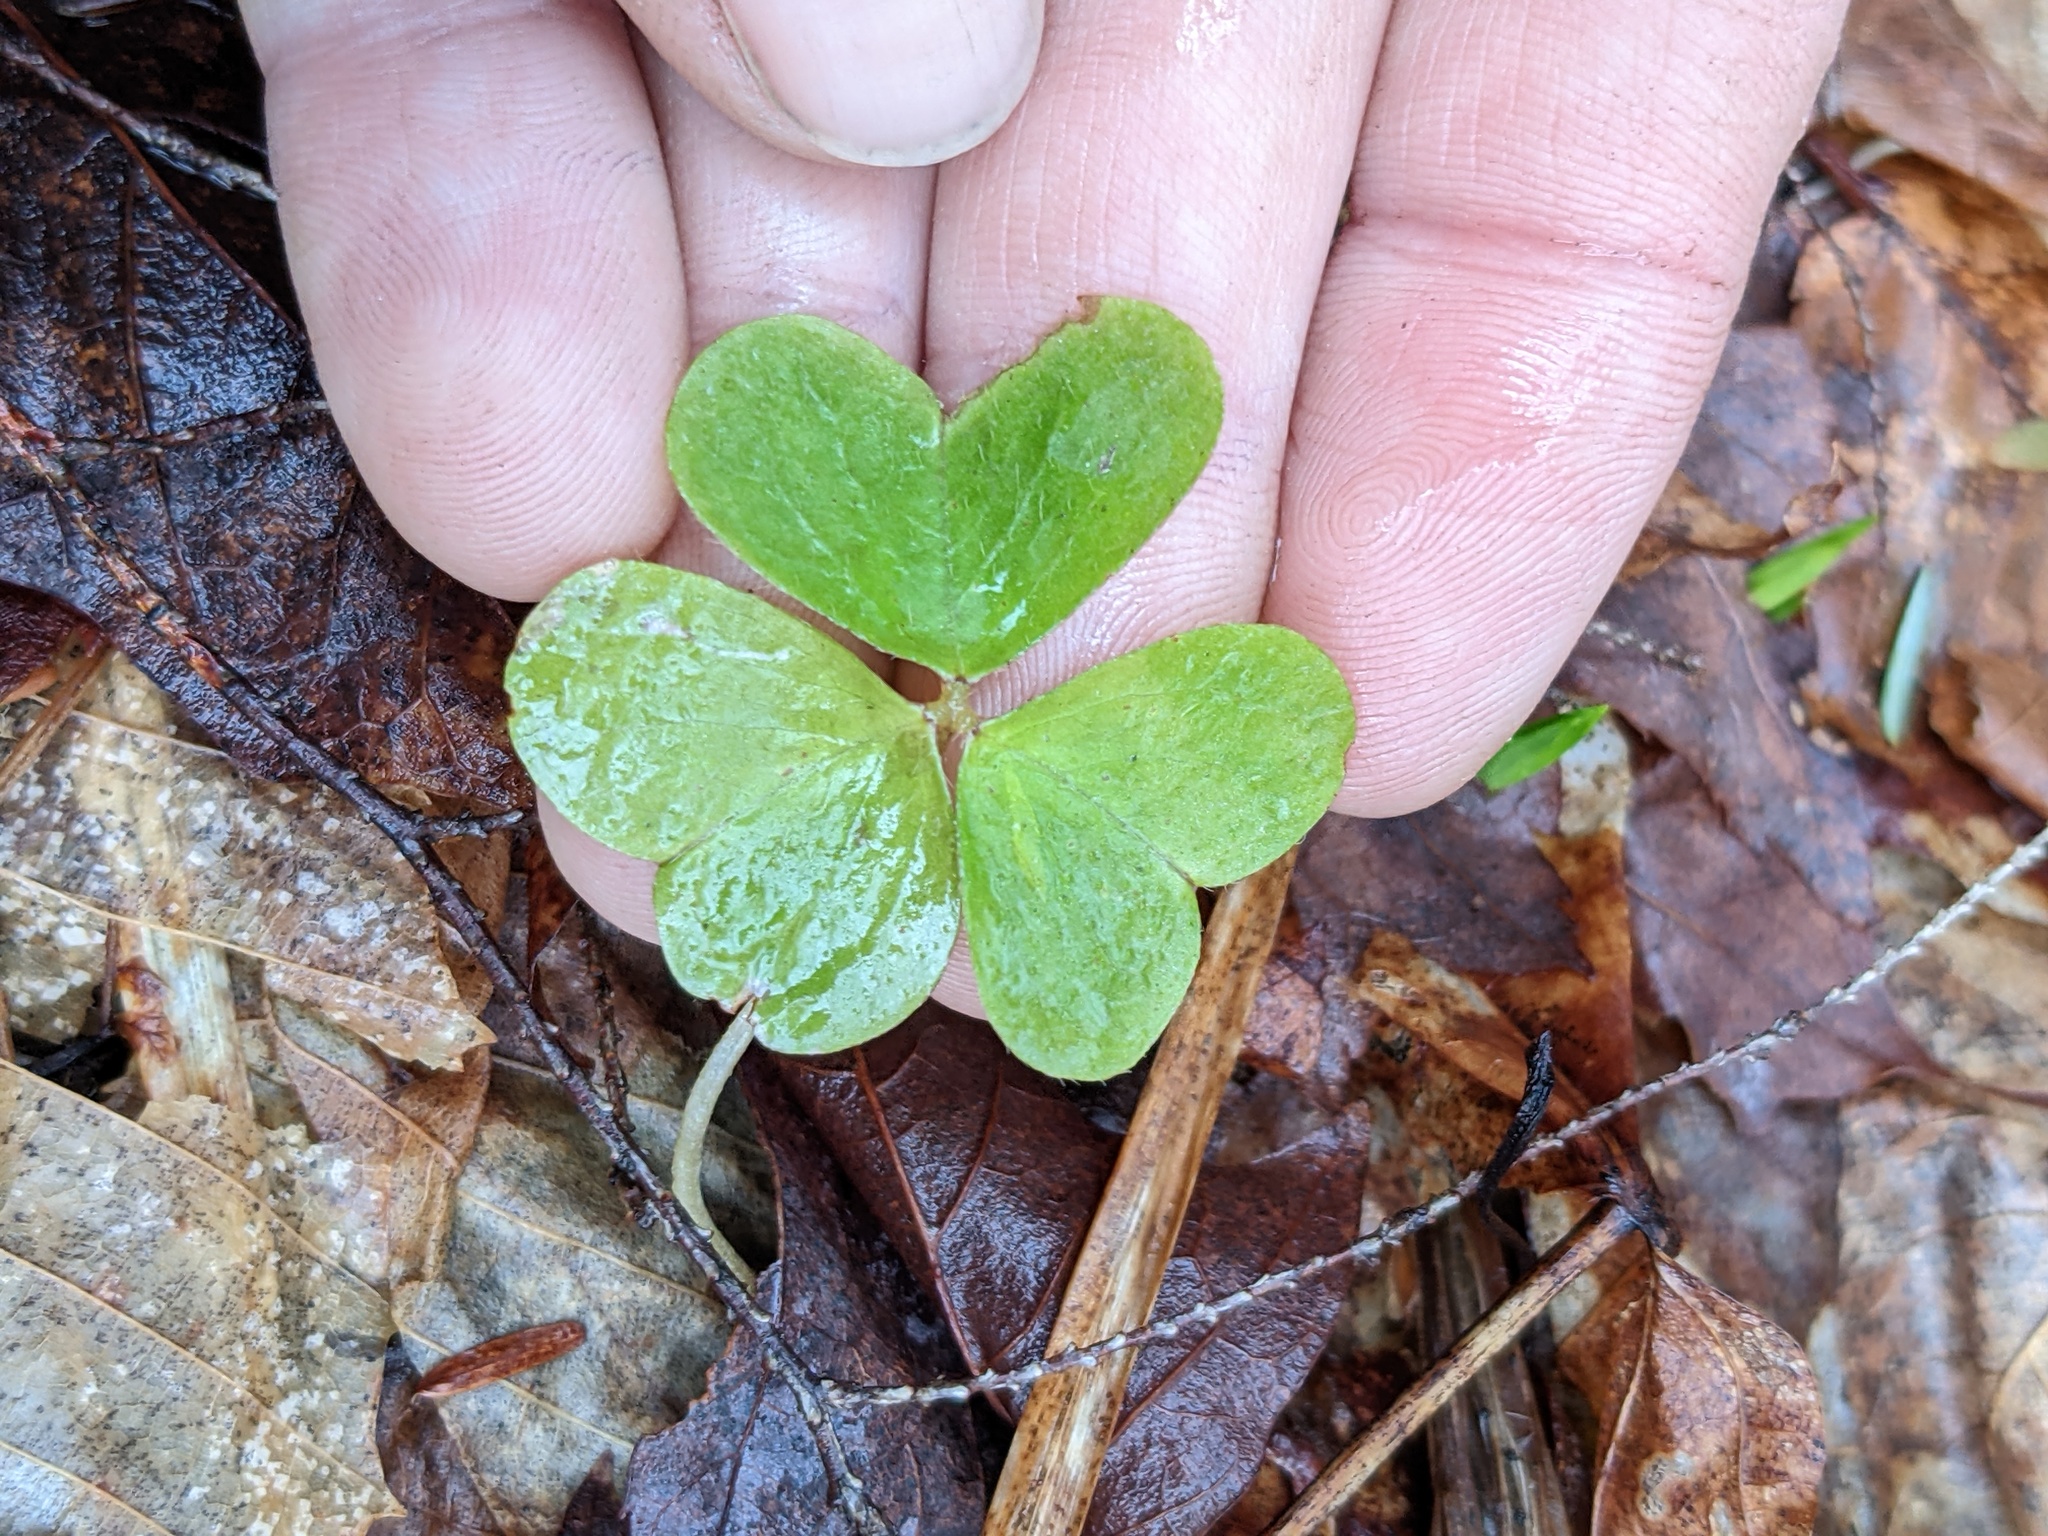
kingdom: Plantae
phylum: Tracheophyta
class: Magnoliopsida
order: Oxalidales
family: Oxalidaceae
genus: Oxalis
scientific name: Oxalis montana
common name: American wood-sorrel
